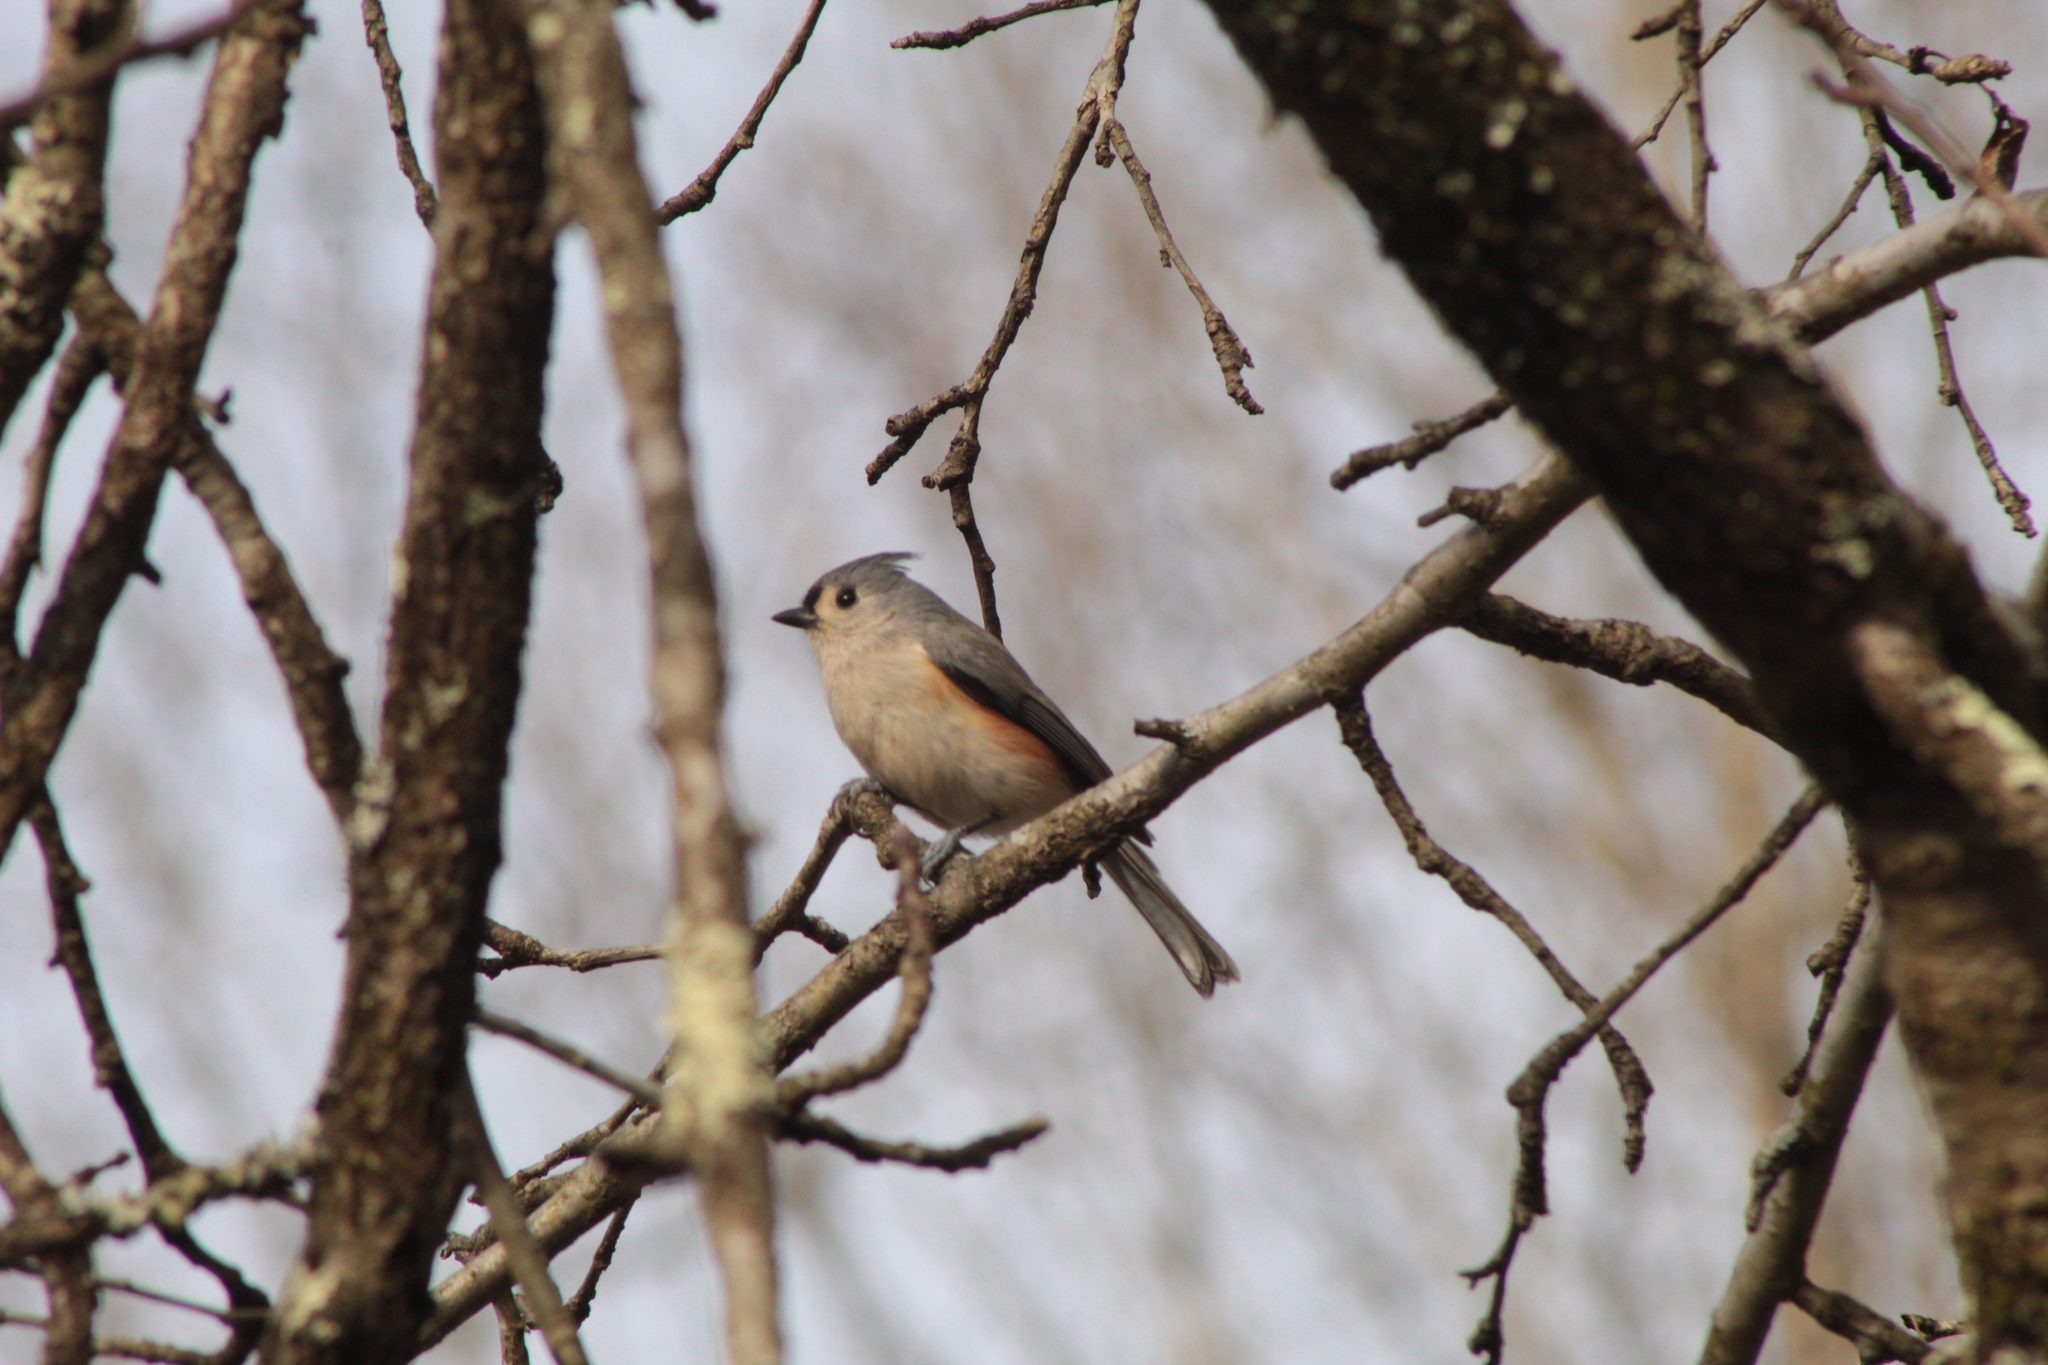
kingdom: Animalia
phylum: Chordata
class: Aves
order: Passeriformes
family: Paridae
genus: Baeolophus
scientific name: Baeolophus bicolor
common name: Tufted titmouse
